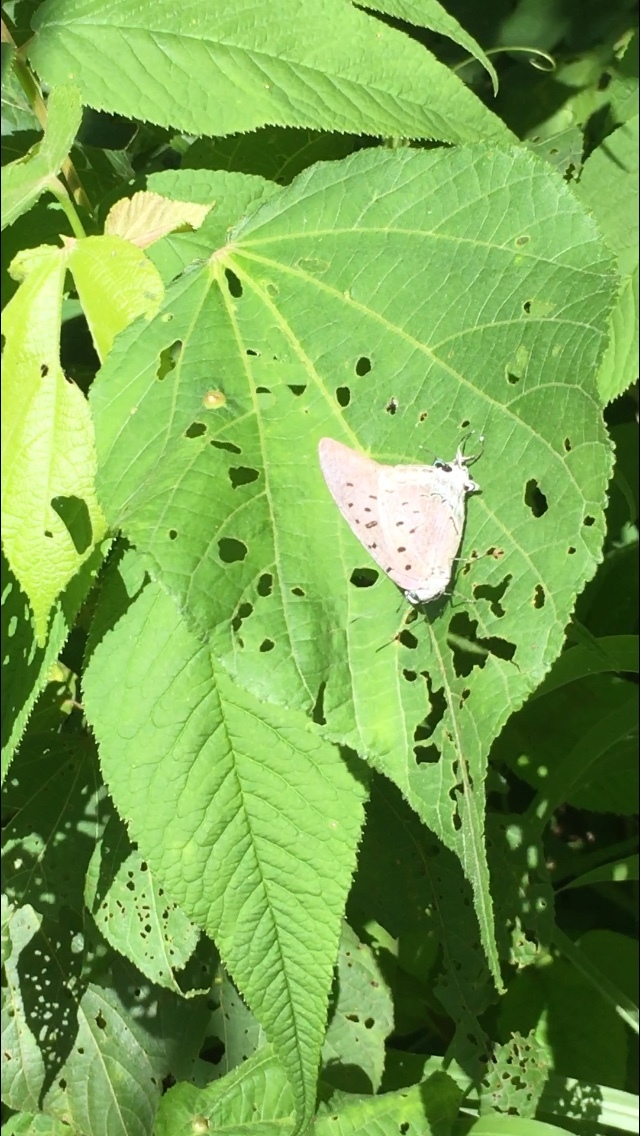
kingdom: Animalia
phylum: Arthropoda
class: Insecta
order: Lepidoptera
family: Lycaenidae
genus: Pseudolycaena
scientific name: Pseudolycaena damo
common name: Sky-blue hairstreak
